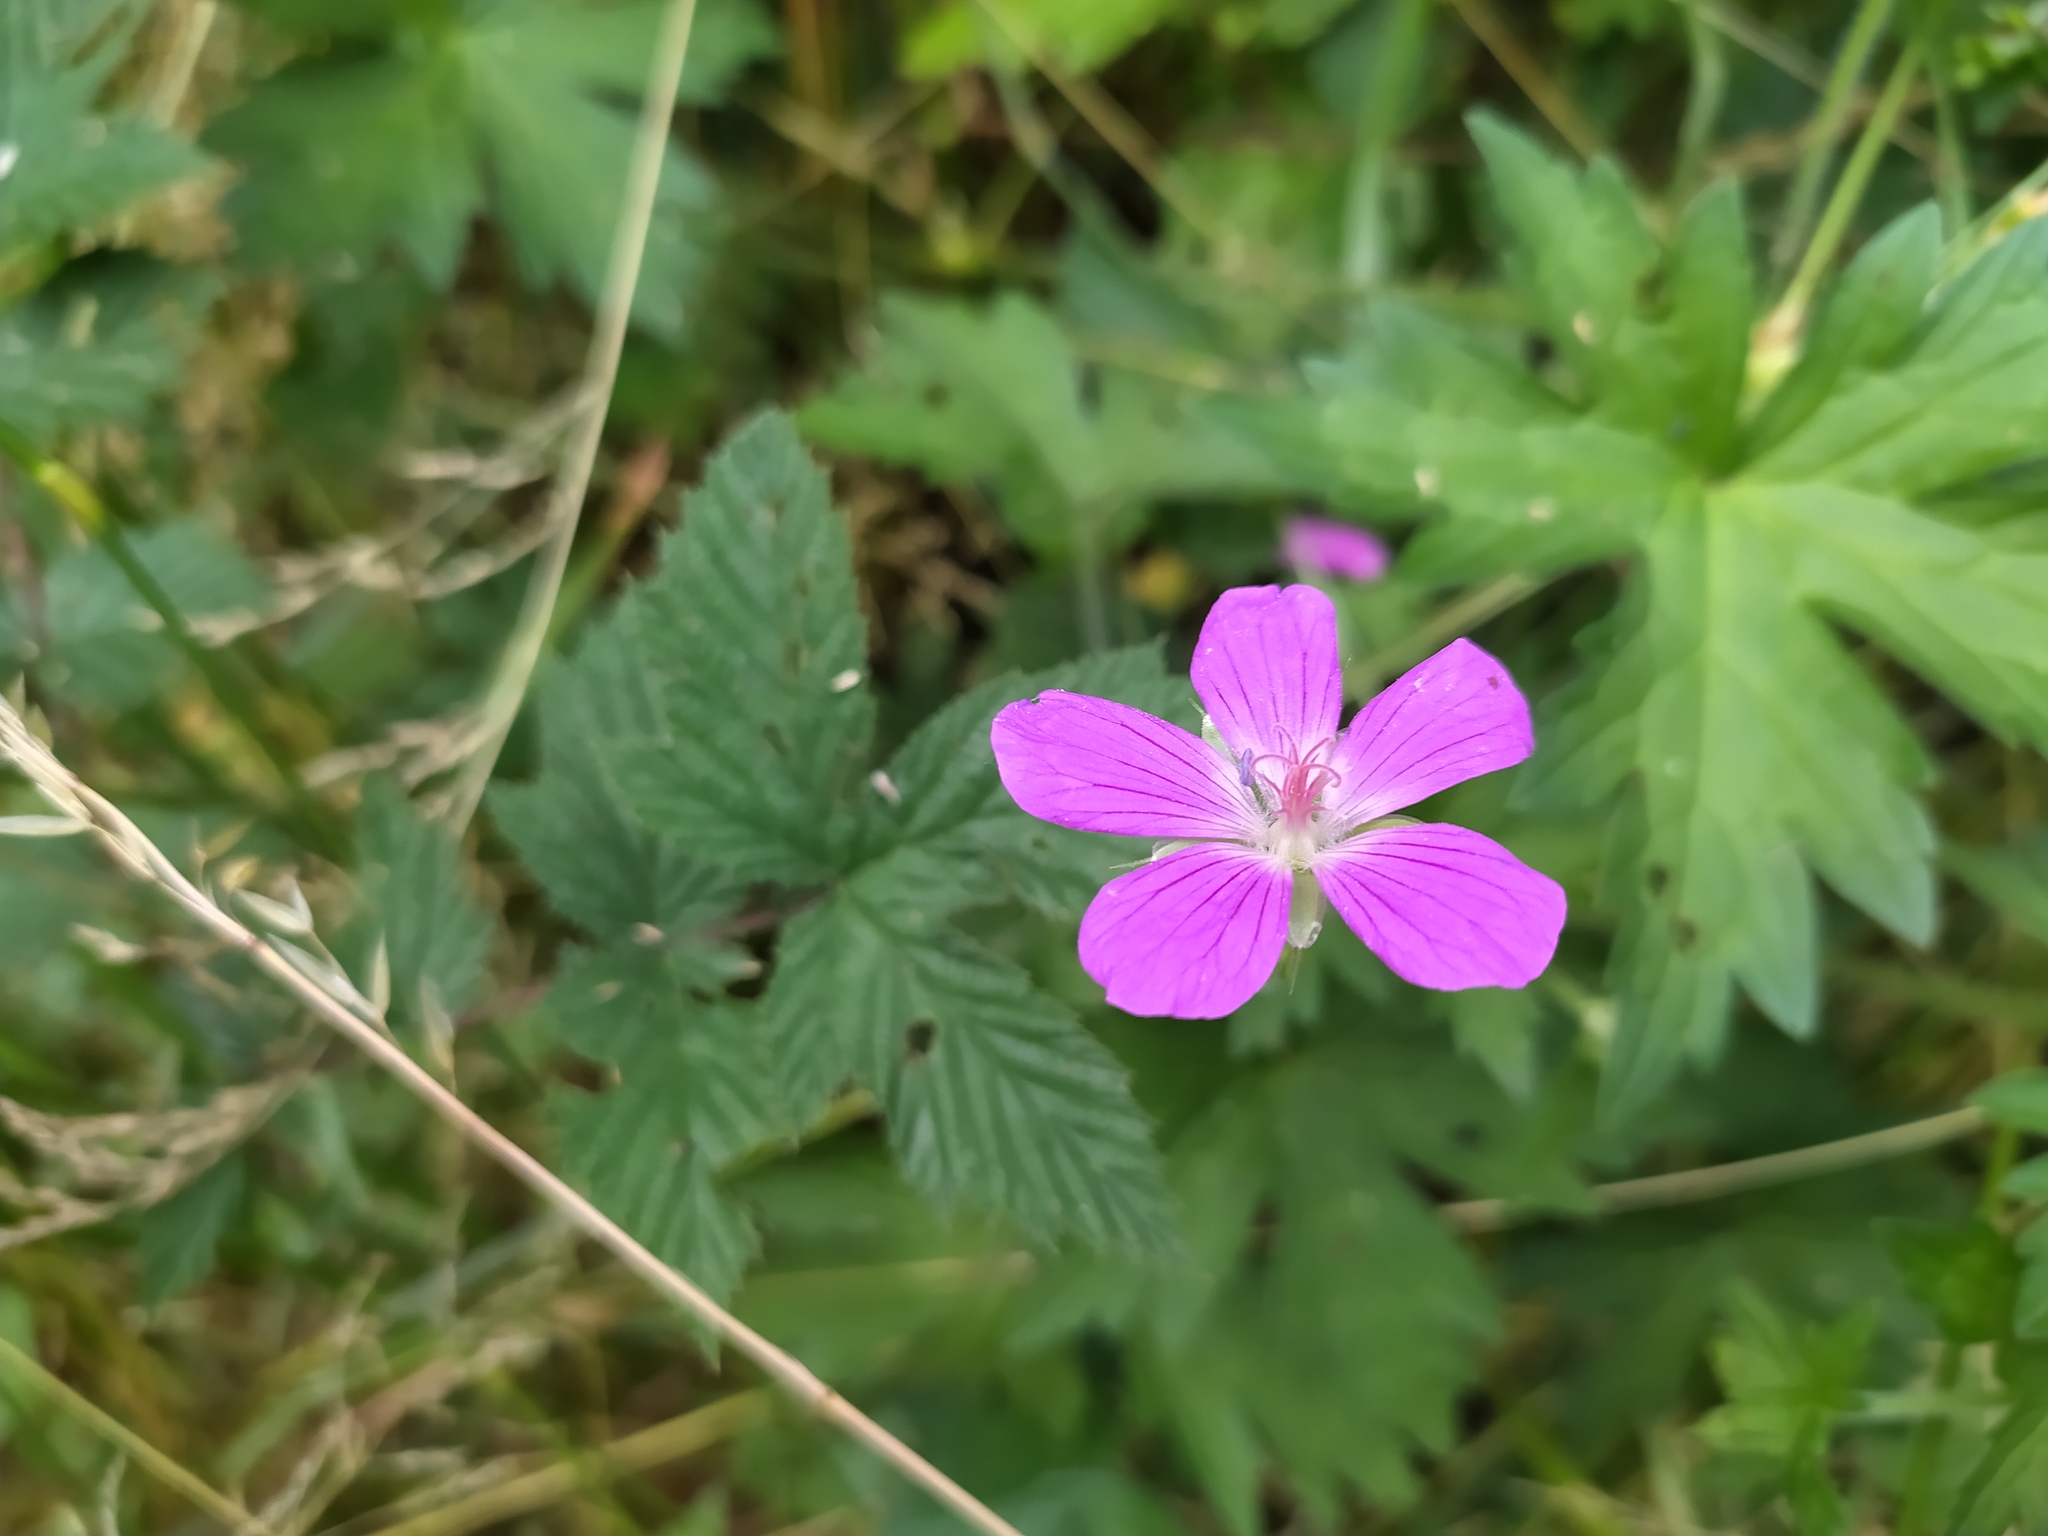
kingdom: Plantae
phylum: Tracheophyta
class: Magnoliopsida
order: Geraniales
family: Geraniaceae
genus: Geranium
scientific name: Geranium palustre
